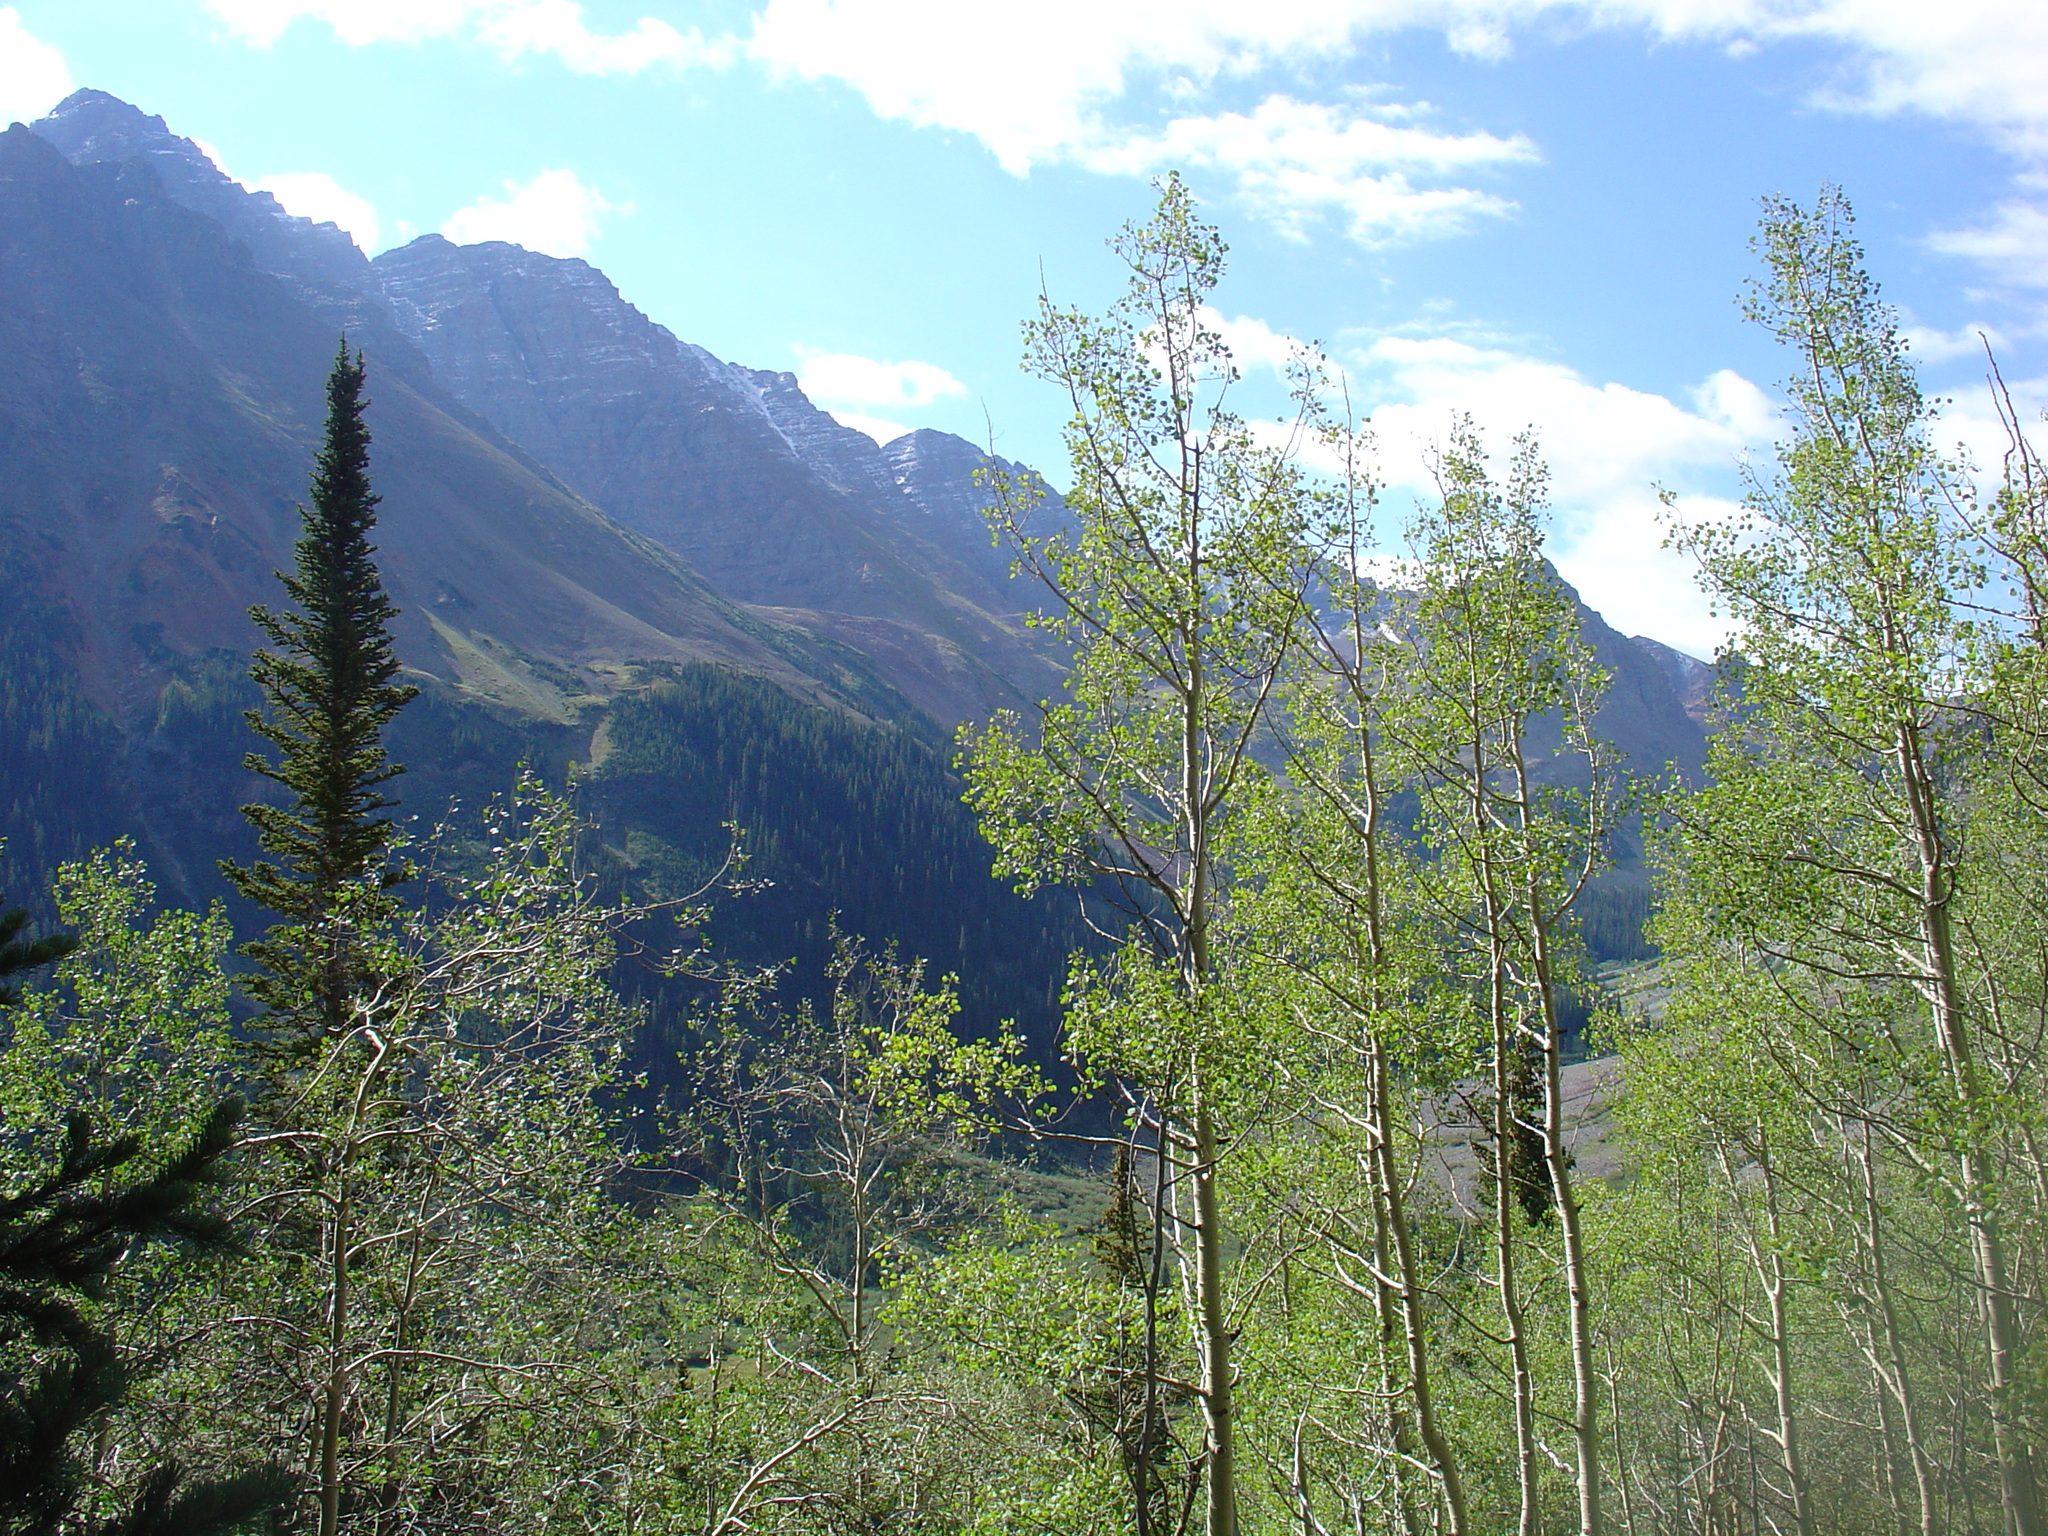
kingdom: Plantae
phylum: Tracheophyta
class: Magnoliopsida
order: Malpighiales
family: Salicaceae
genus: Populus
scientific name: Populus tremuloides
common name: Quaking aspen
